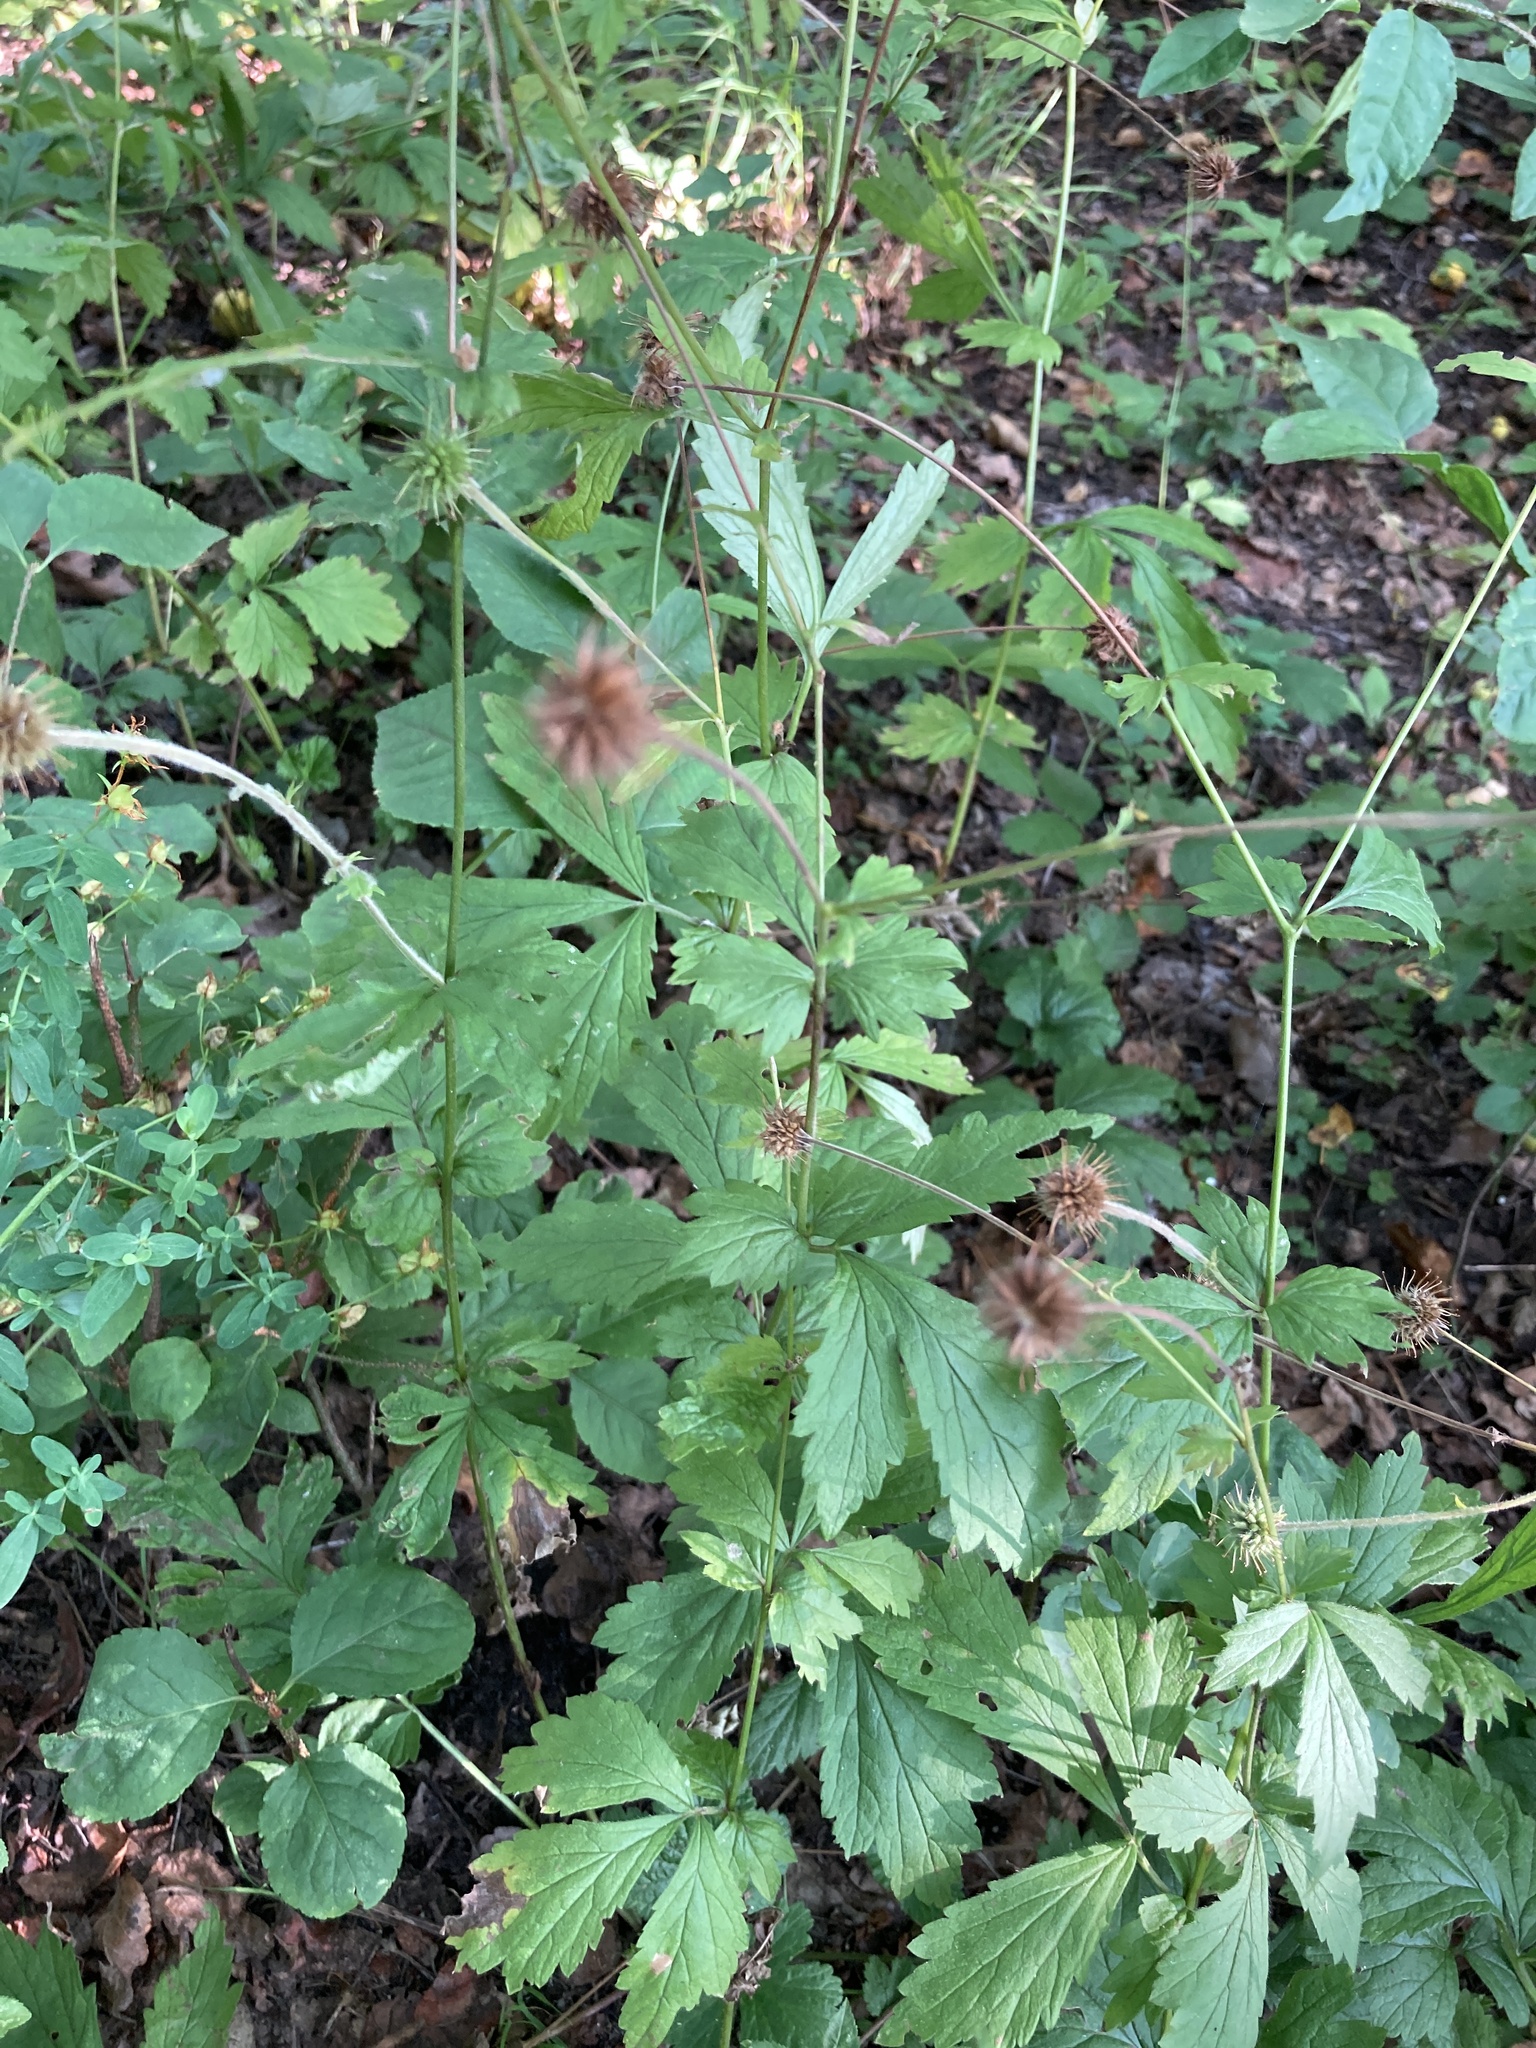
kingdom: Plantae
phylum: Tracheophyta
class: Magnoliopsida
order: Rosales
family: Rosaceae
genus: Geum
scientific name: Geum urbanum
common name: Wood avens
